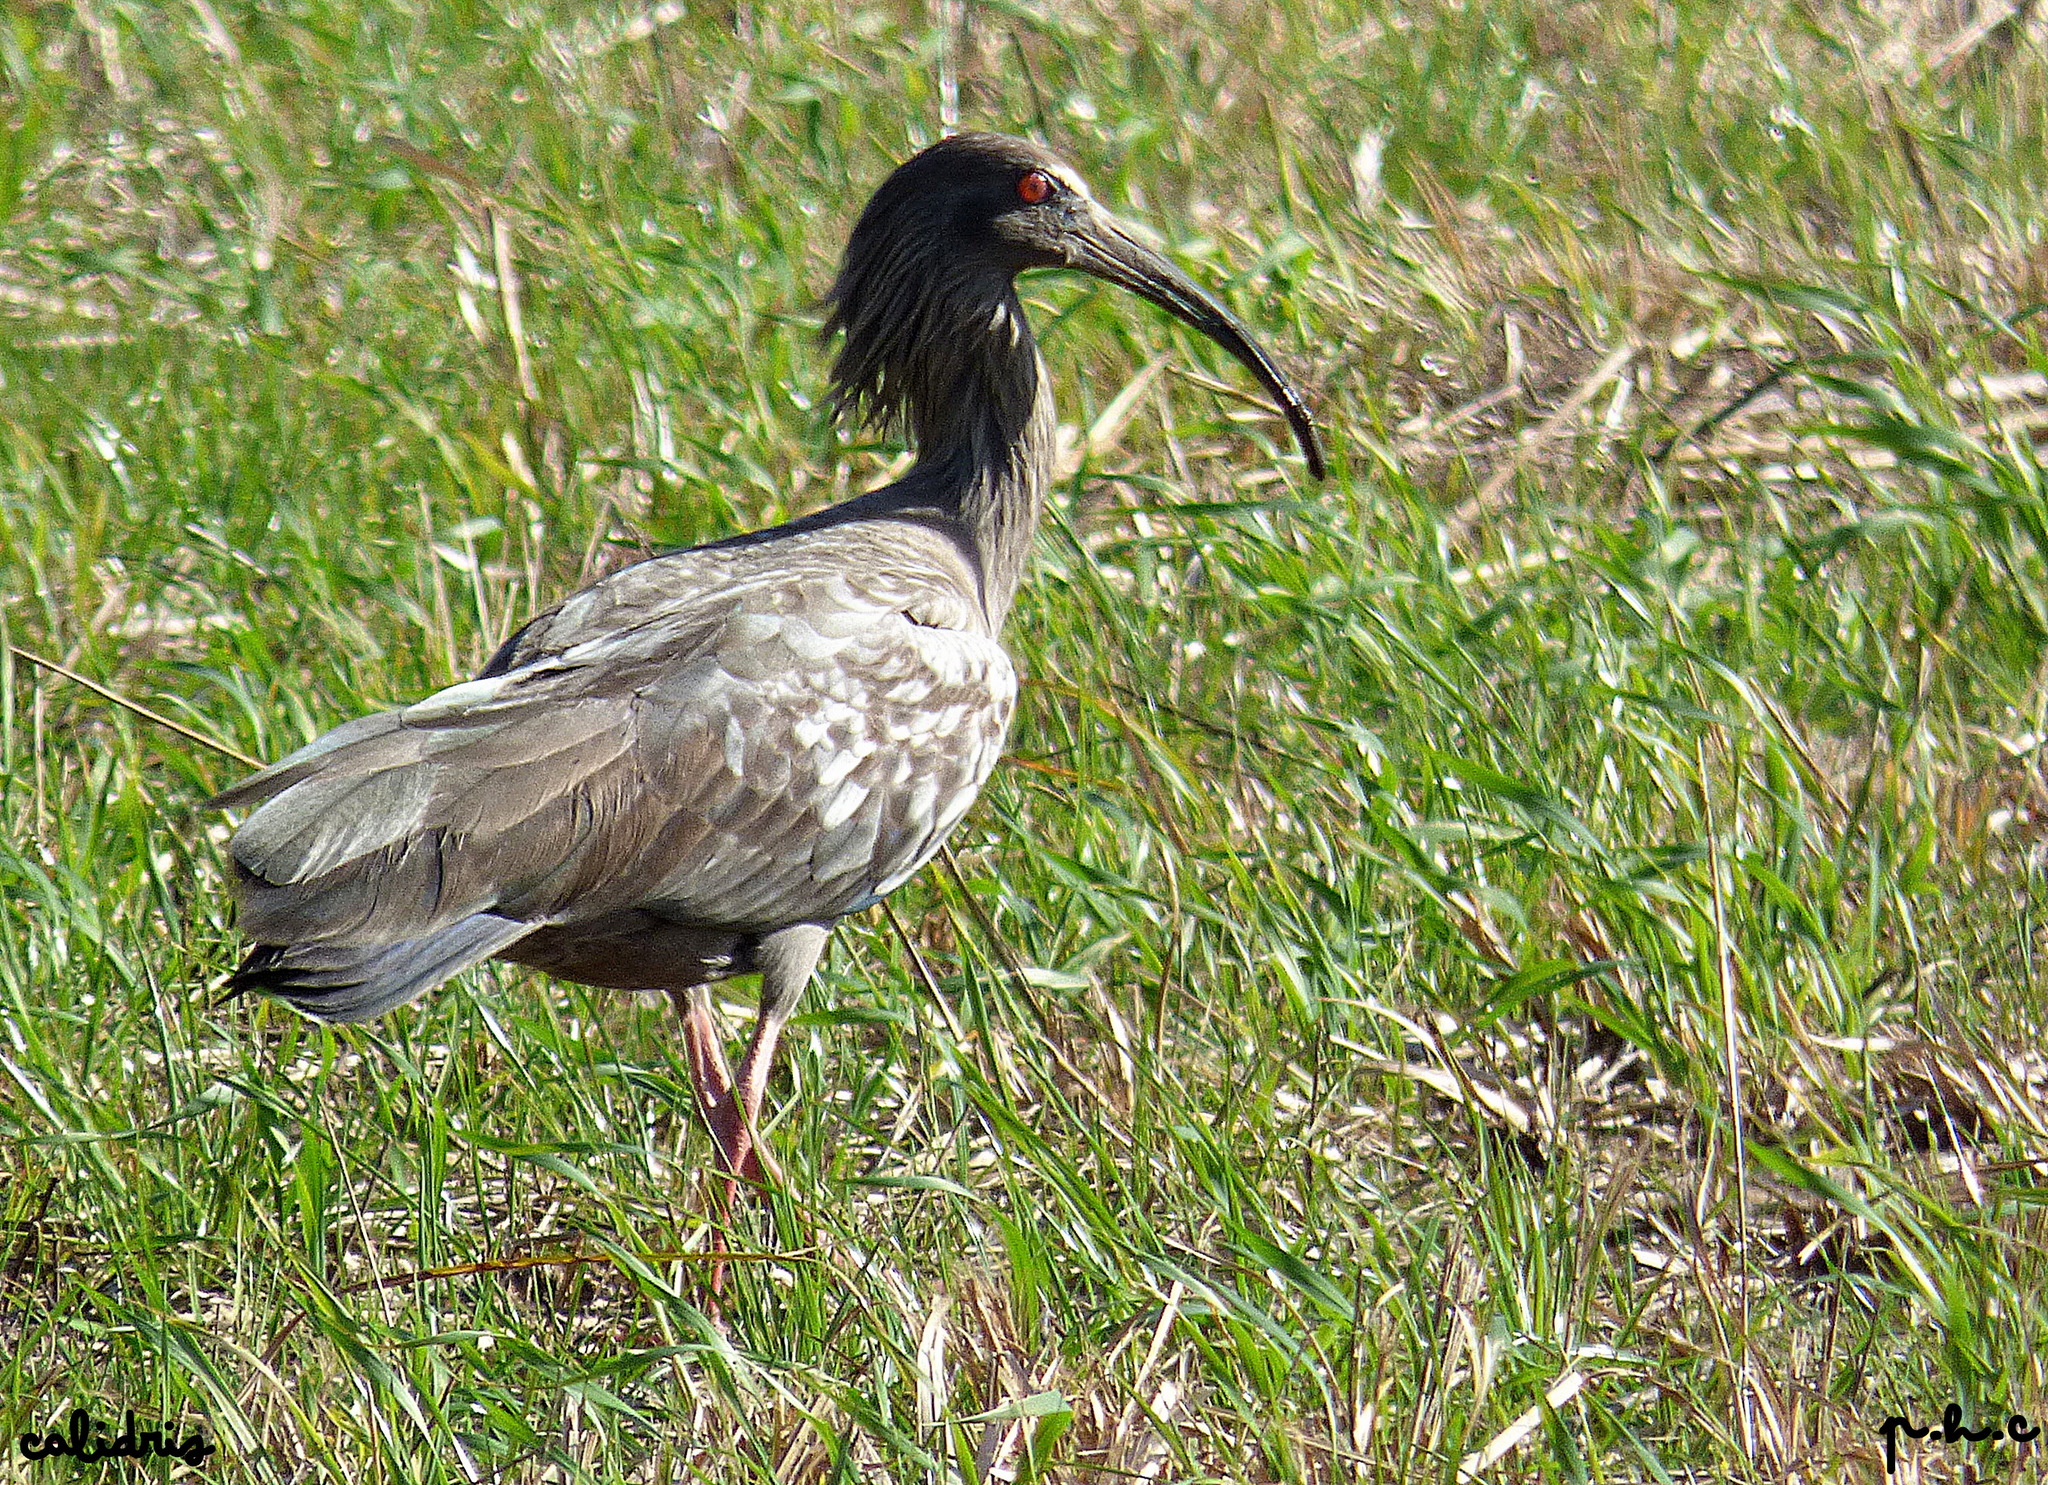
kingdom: Animalia
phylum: Chordata
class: Aves
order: Pelecaniformes
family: Threskiornithidae
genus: Theristicus
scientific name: Theristicus caerulescens
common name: Plumbeous ibis
